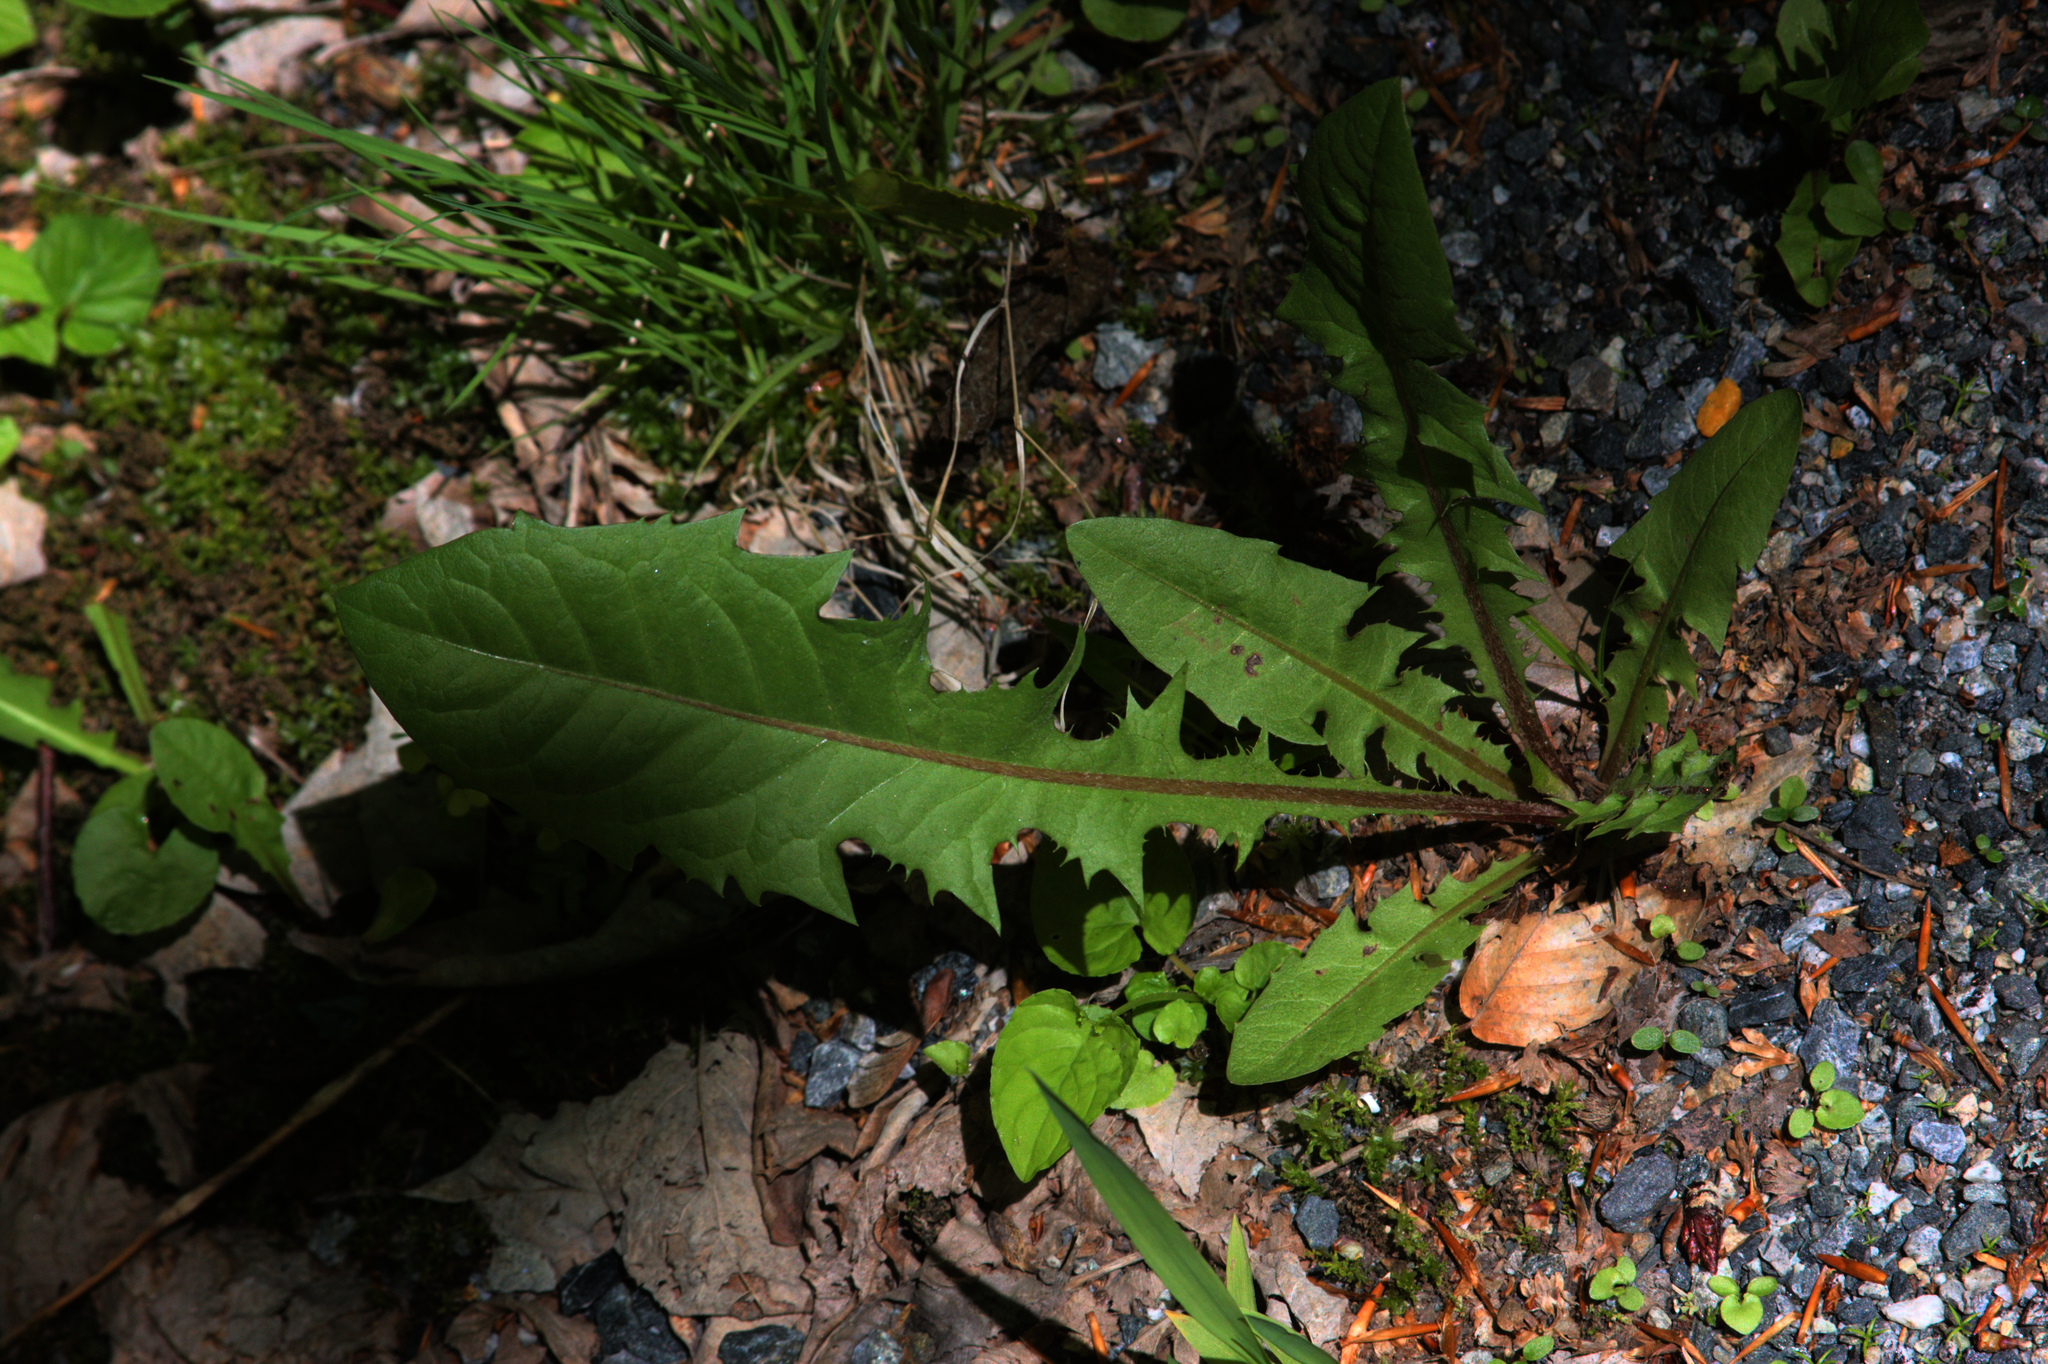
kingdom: Plantae
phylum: Tracheophyta
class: Magnoliopsida
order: Asterales
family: Asteraceae
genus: Taraxacum
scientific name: Taraxacum officinale
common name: Common dandelion
